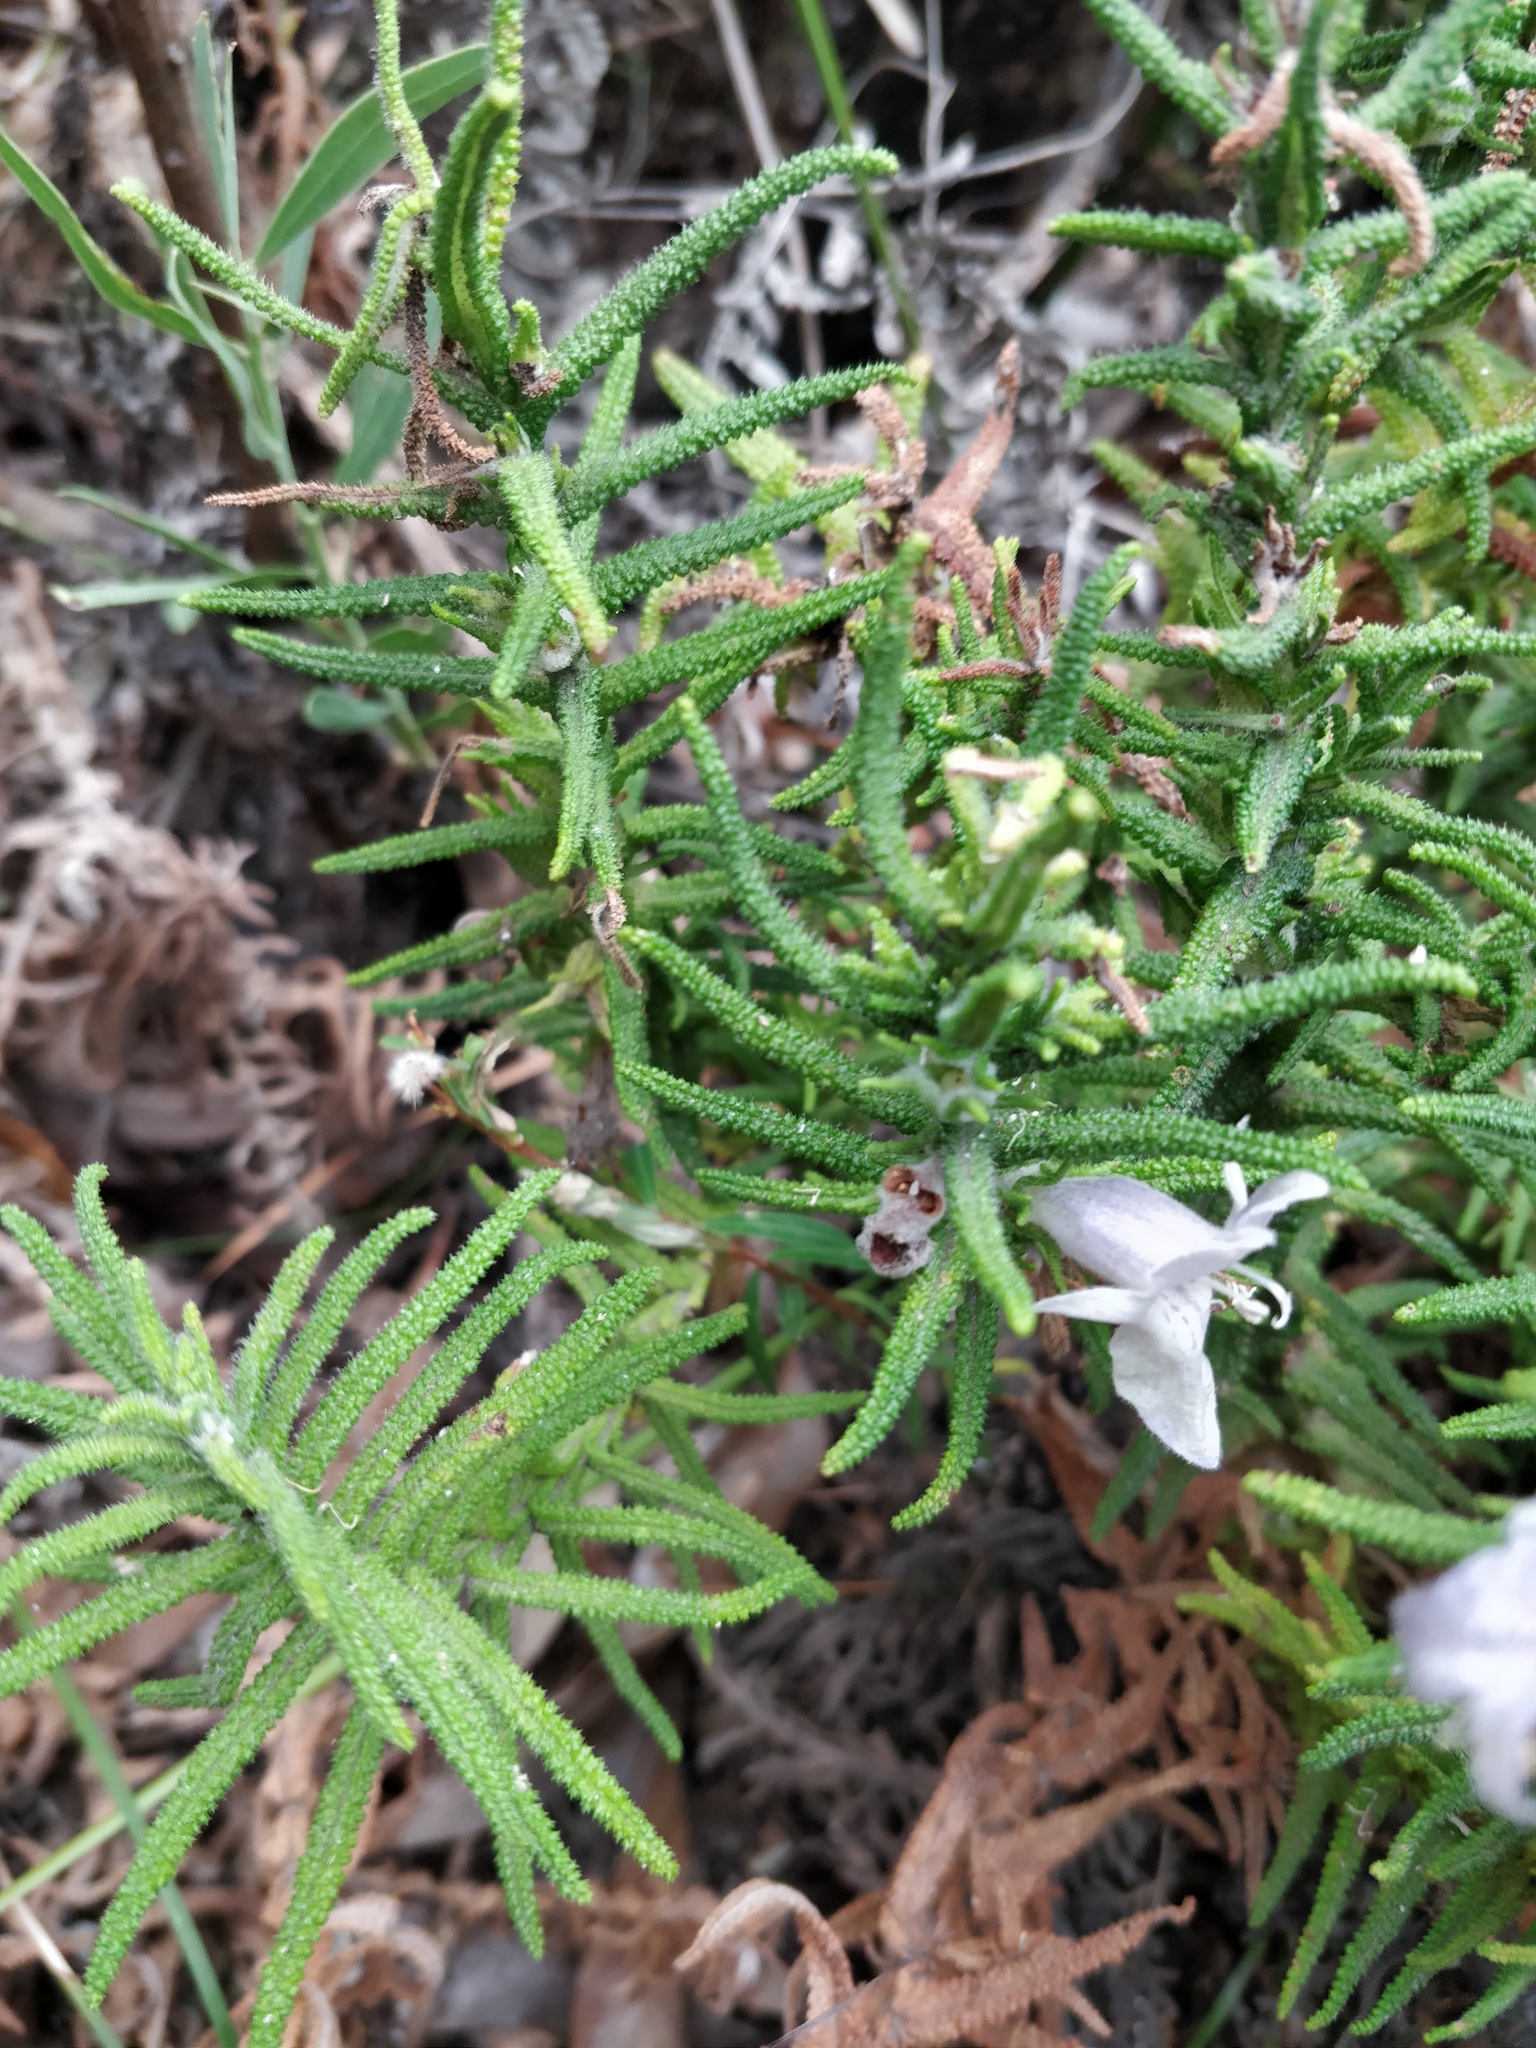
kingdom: Plantae
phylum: Tracheophyta
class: Magnoliopsida
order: Lamiales
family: Lamiaceae
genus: Chloanthes
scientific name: Chloanthes stoechadis
